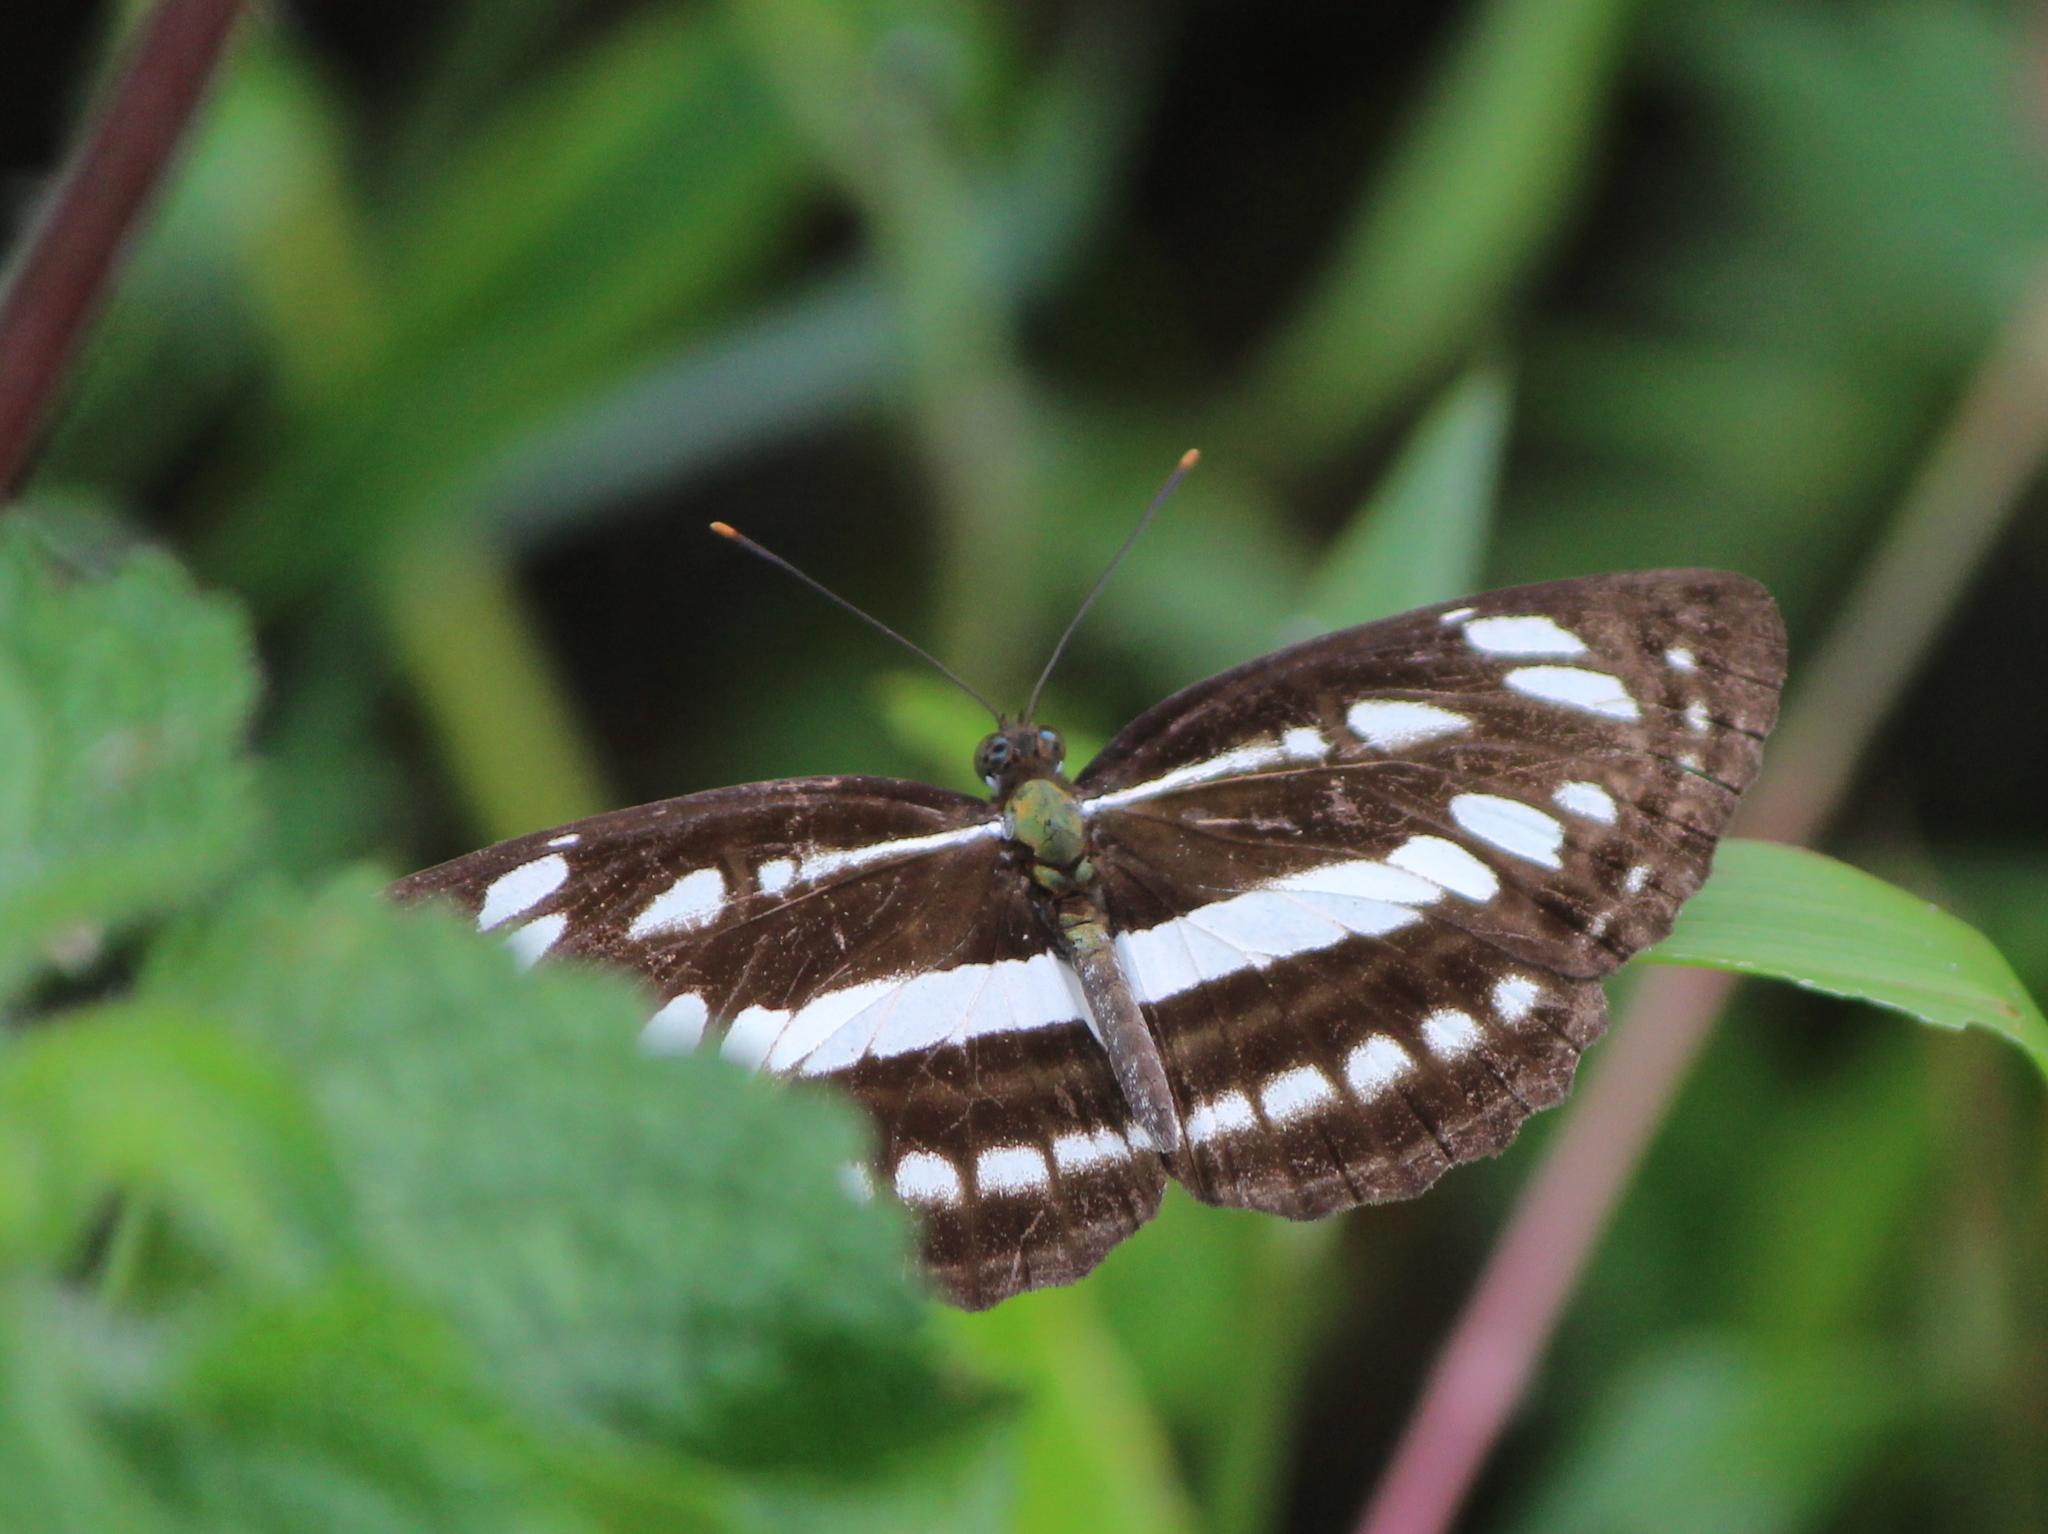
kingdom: Animalia
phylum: Arthropoda
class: Insecta
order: Lepidoptera
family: Nymphalidae
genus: Neptis
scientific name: Neptis hylas
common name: Common sailer
